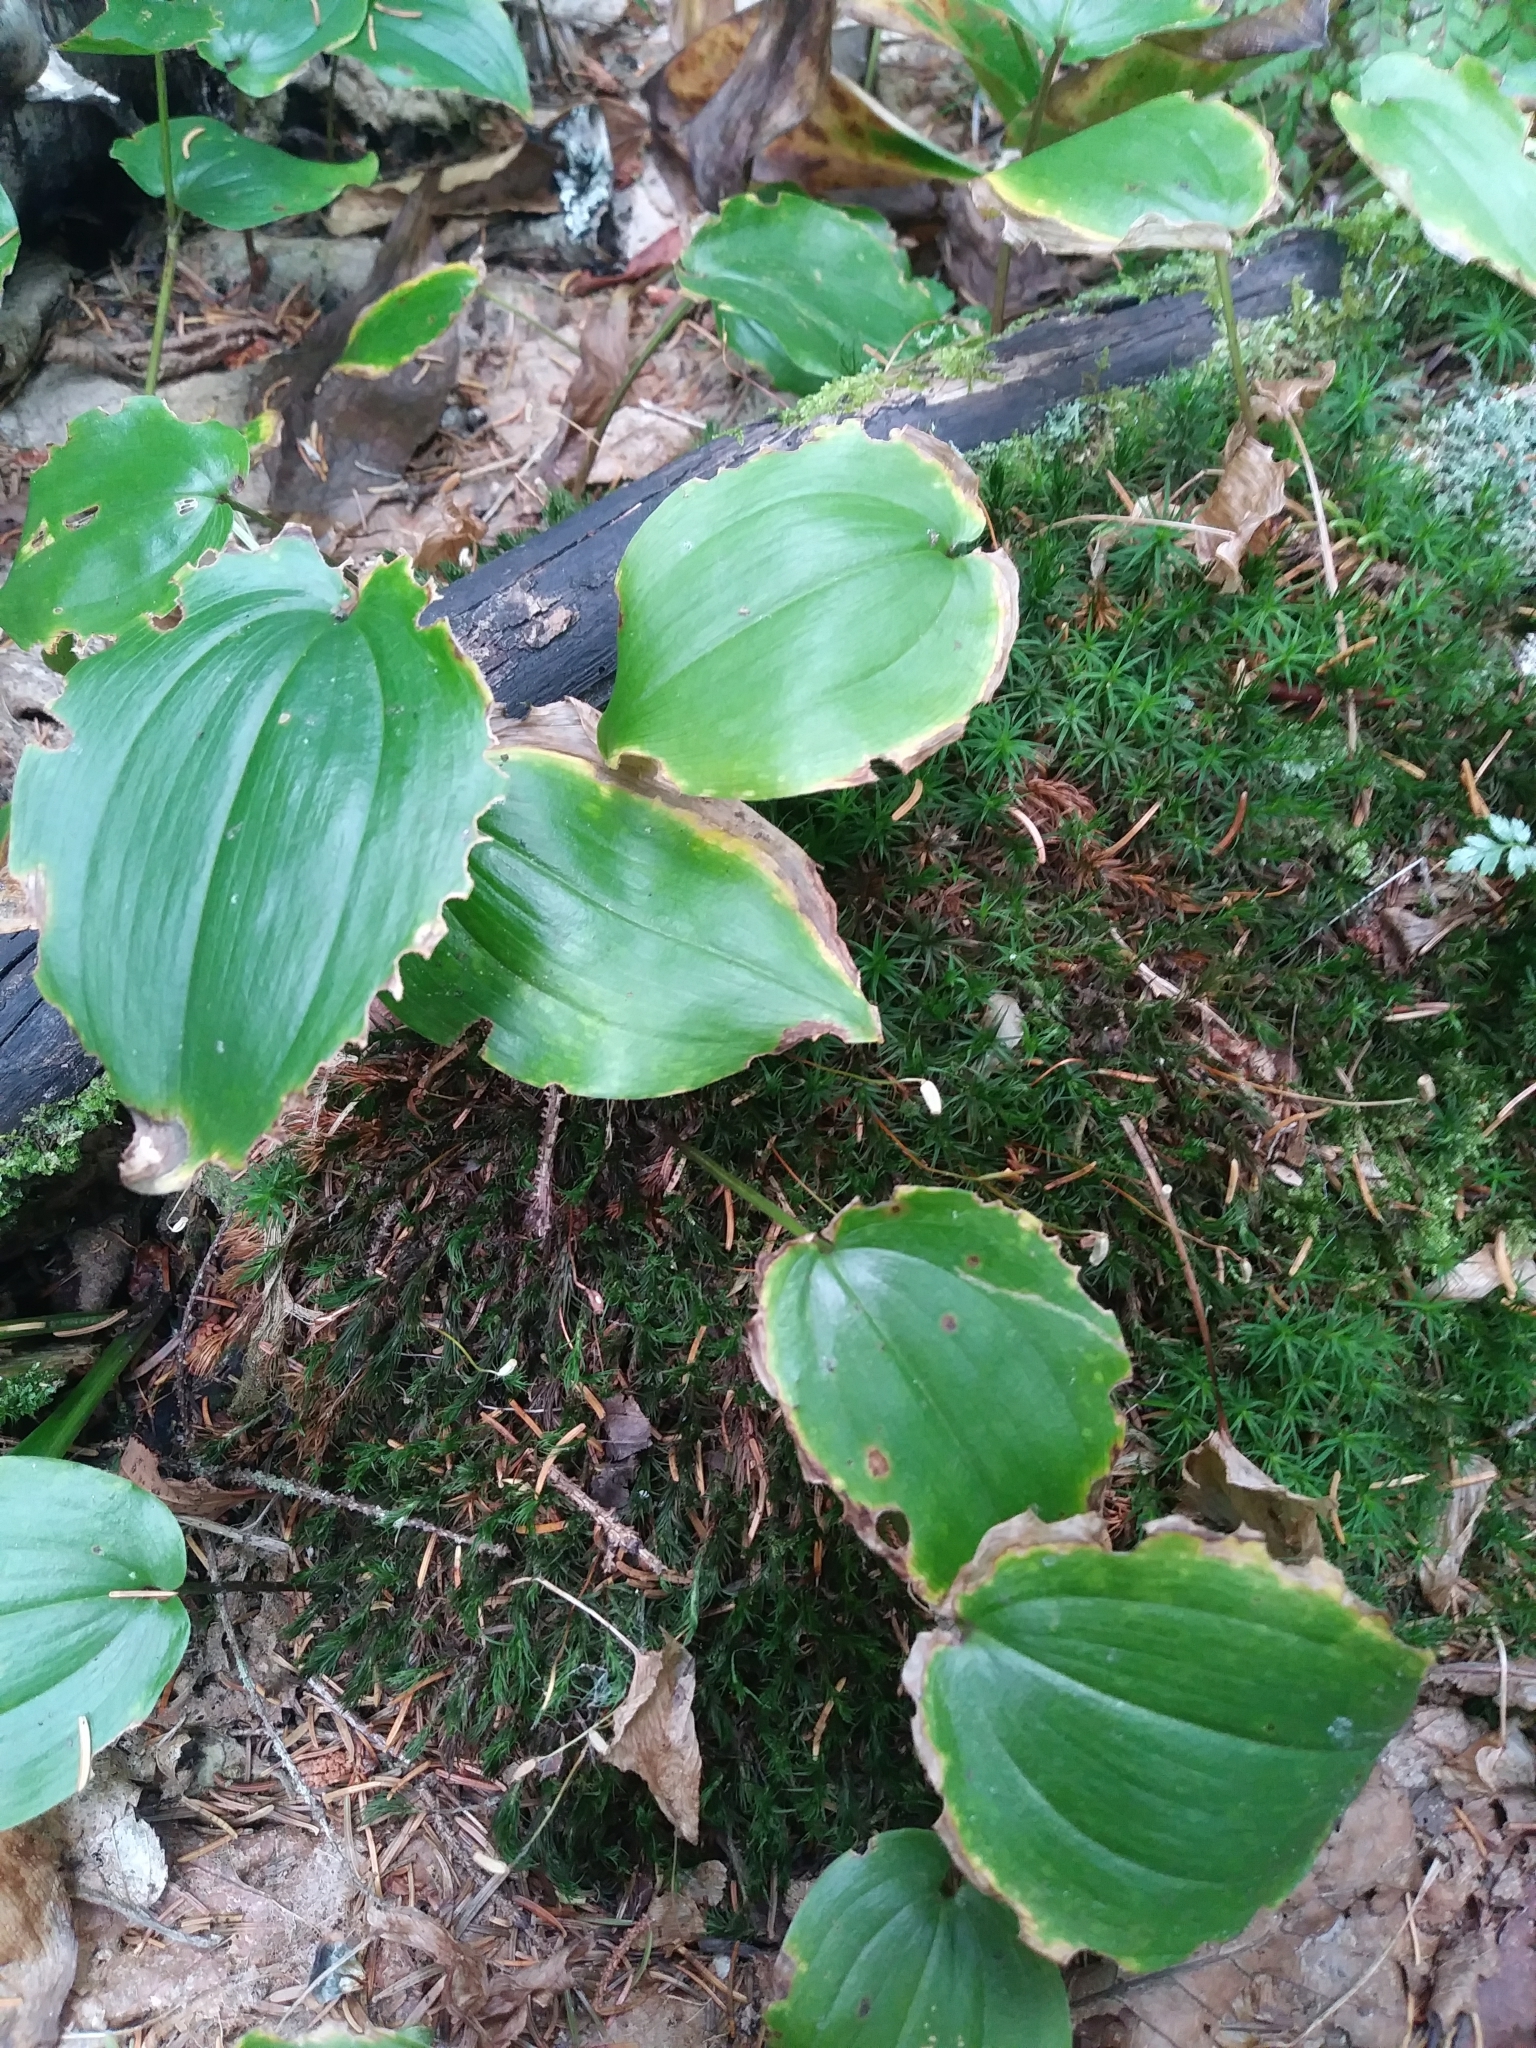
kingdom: Plantae
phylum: Tracheophyta
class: Liliopsida
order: Asparagales
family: Asparagaceae
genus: Maianthemum
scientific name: Maianthemum canadense
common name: False lily-of-the-valley
